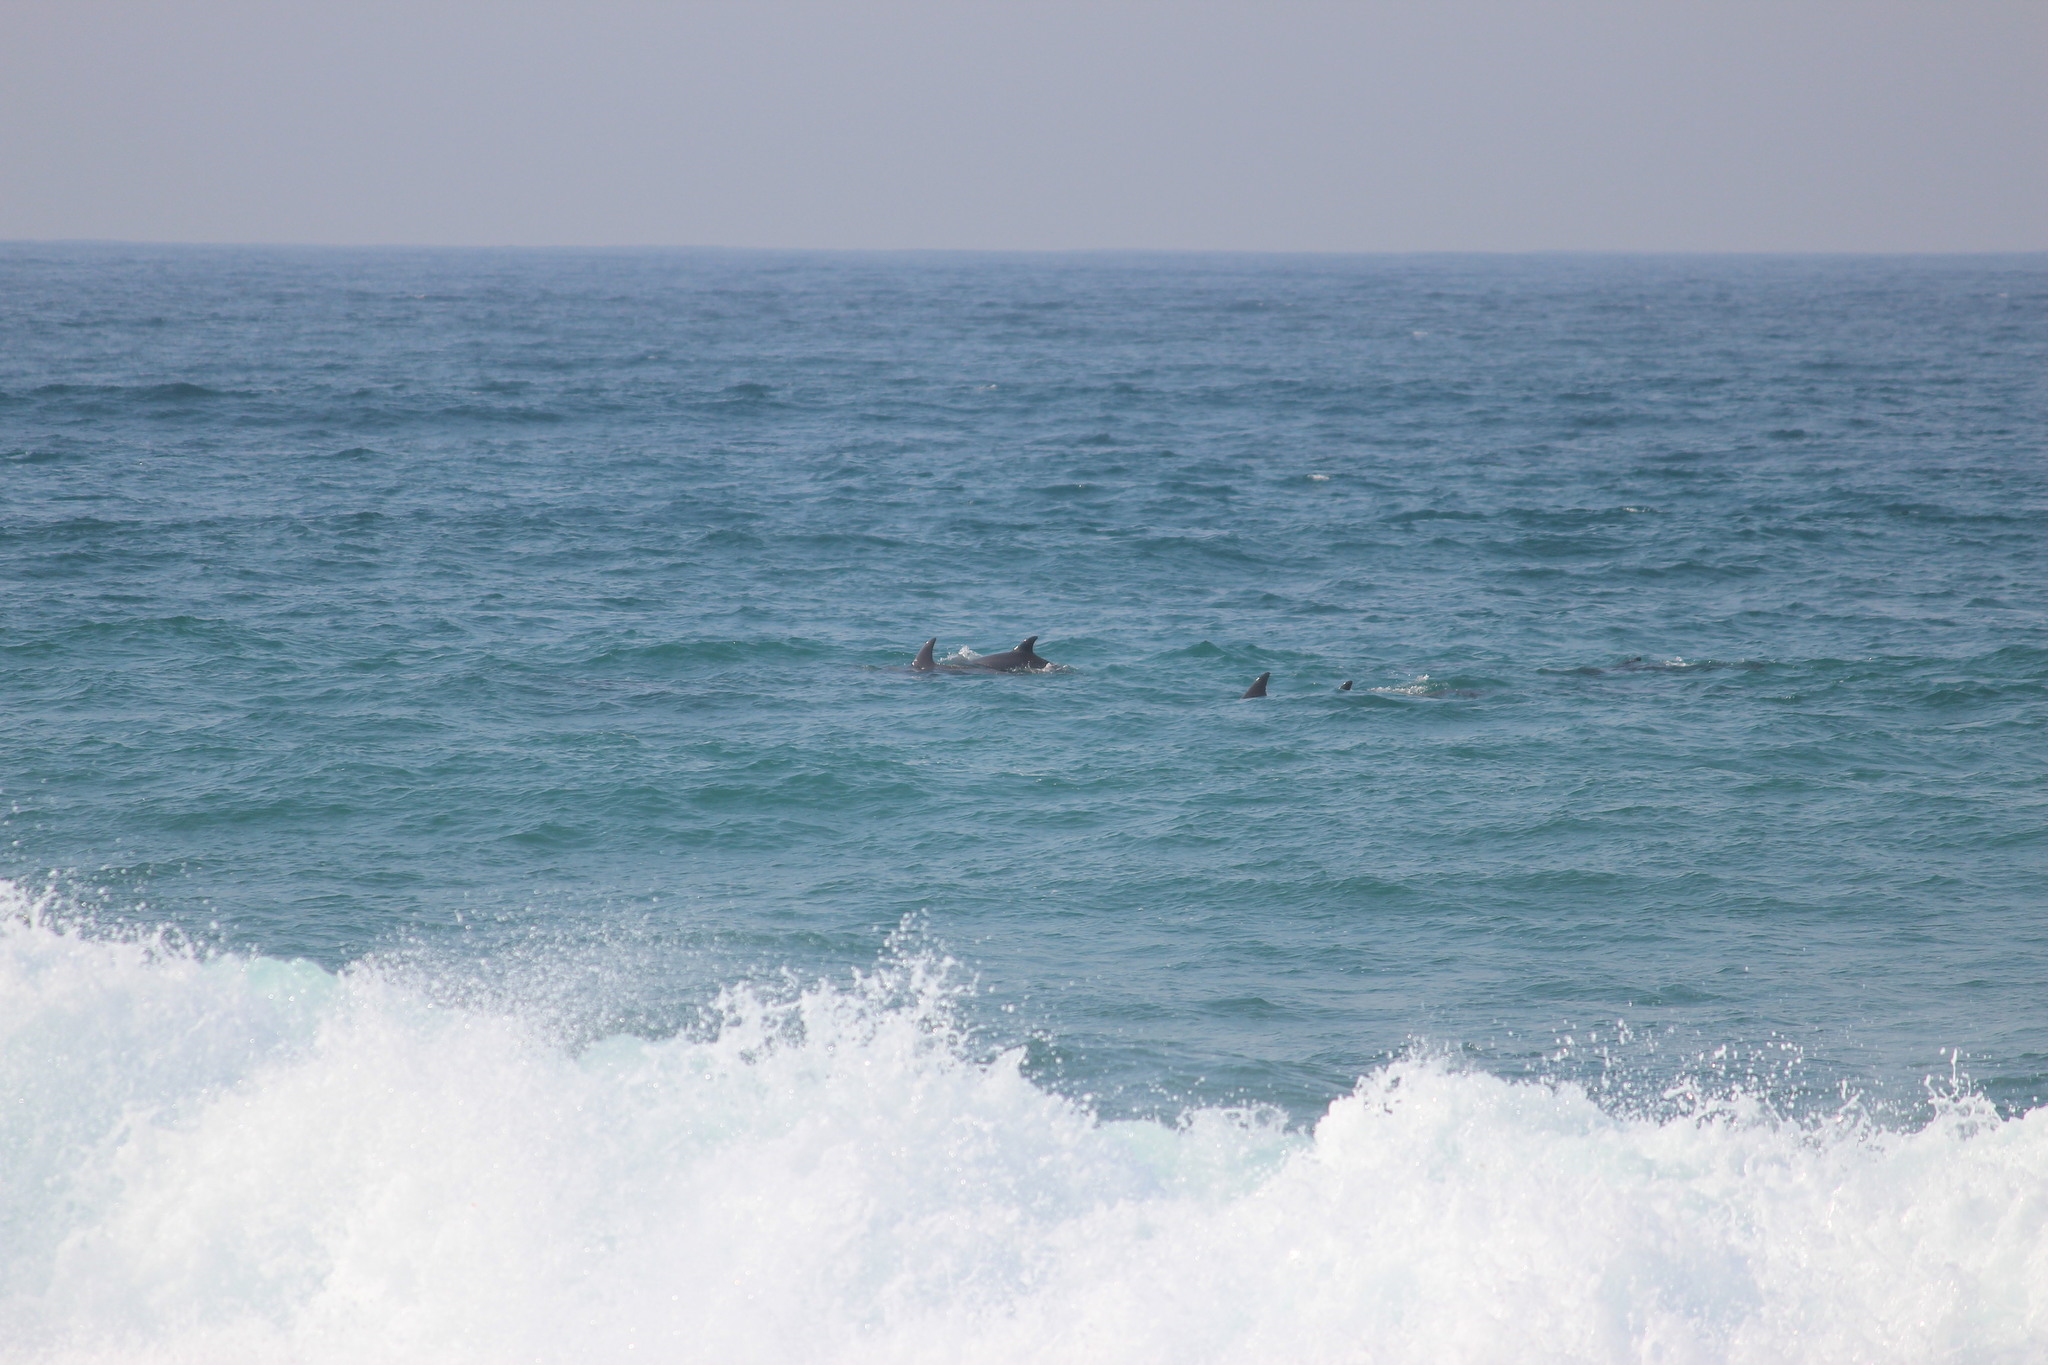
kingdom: Animalia
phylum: Chordata
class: Mammalia
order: Cetacea
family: Delphinidae
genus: Tursiops
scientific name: Tursiops aduncus
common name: Indo-pacific bottlenose dolphin
